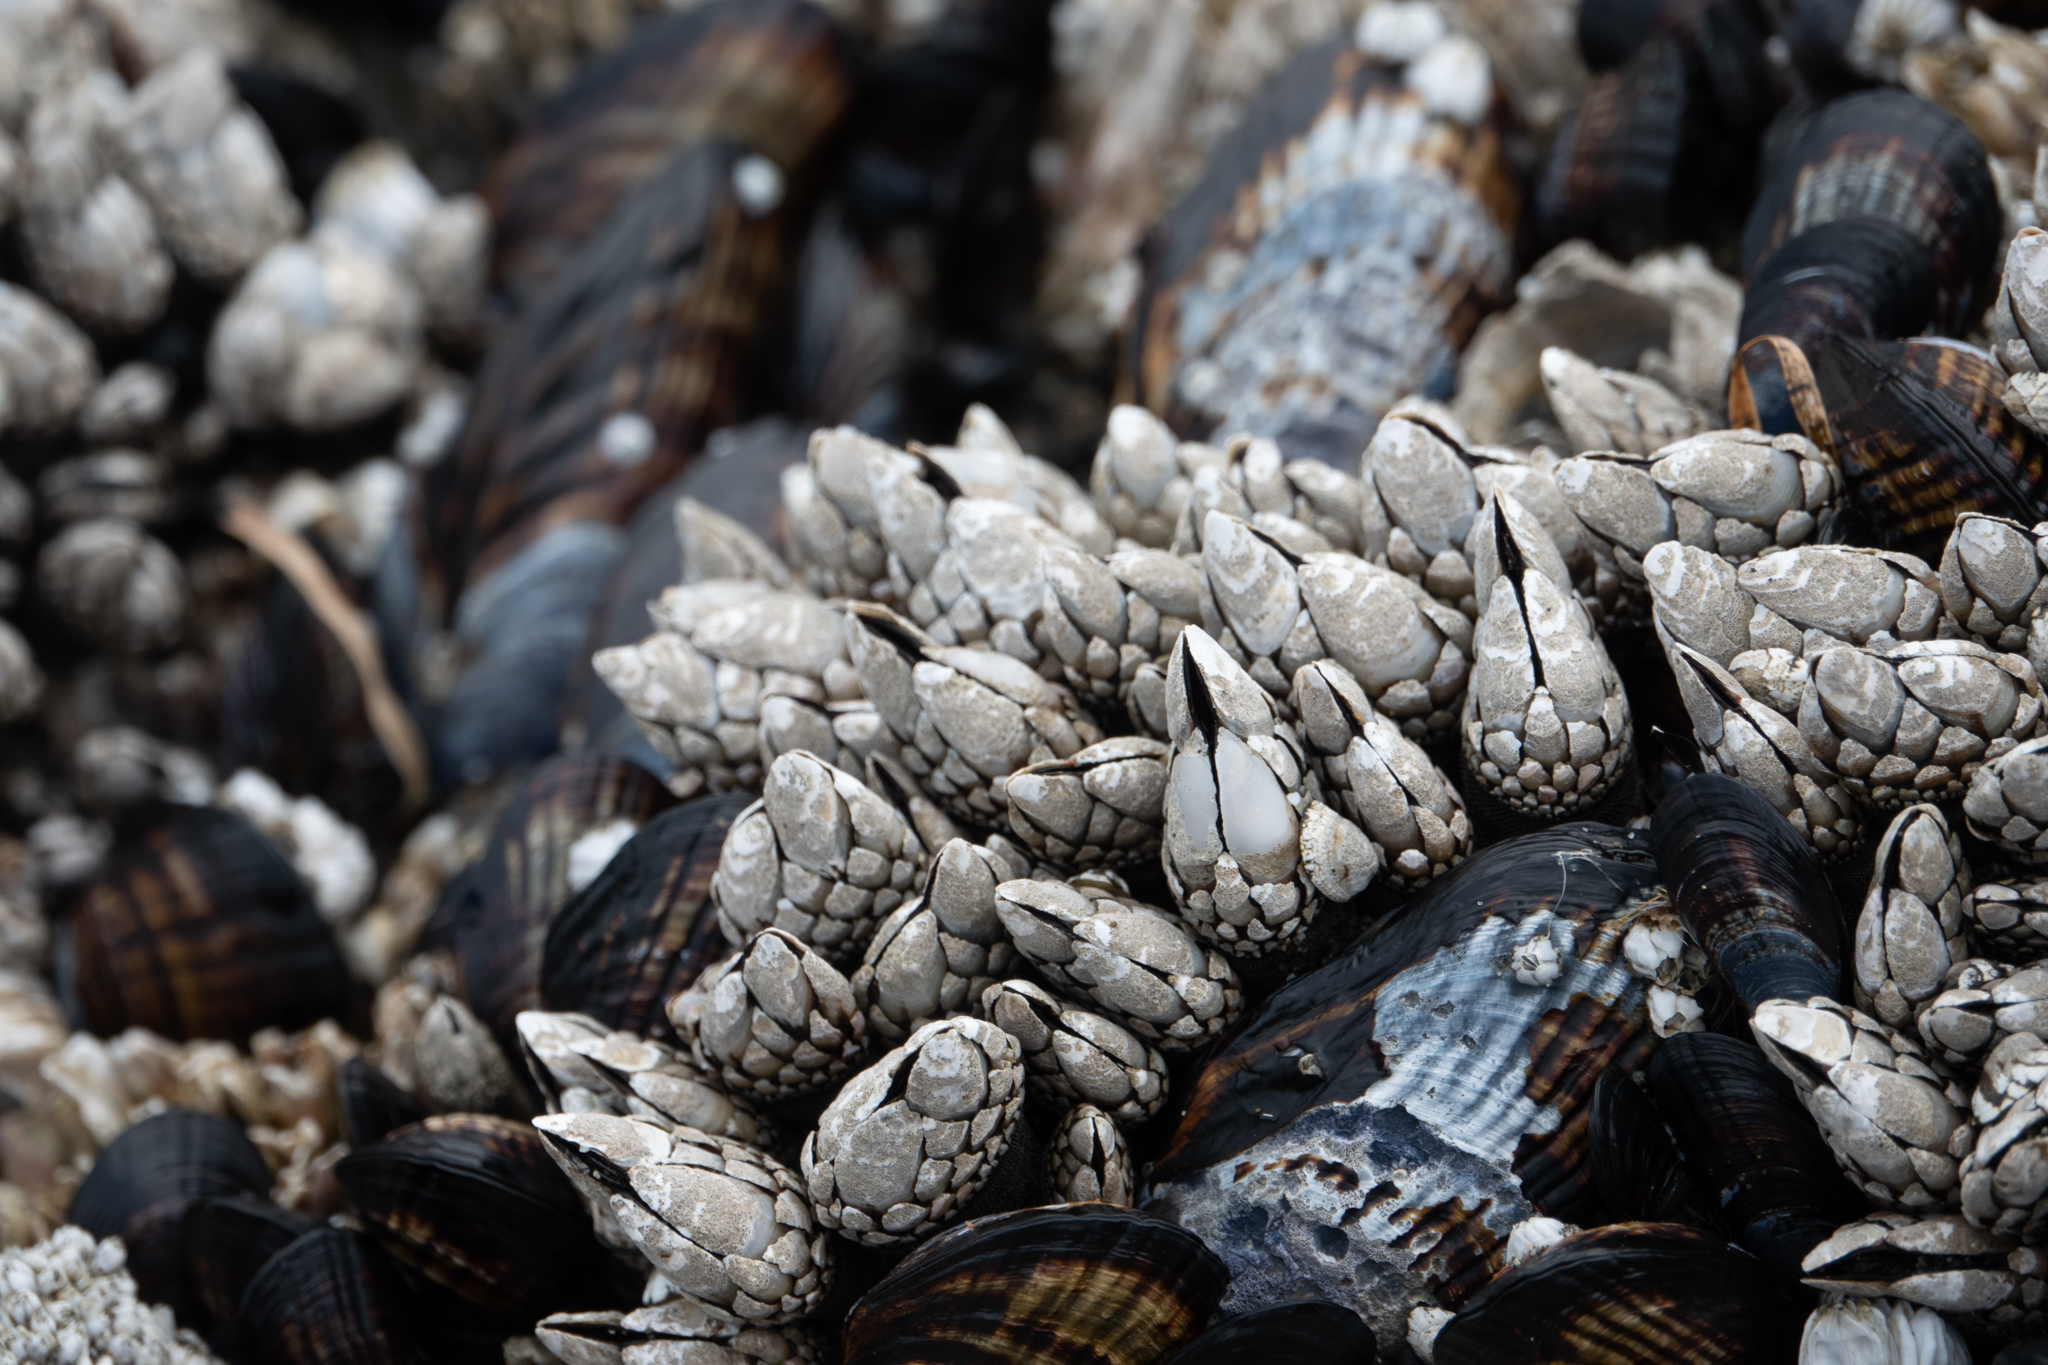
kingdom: Animalia
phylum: Arthropoda
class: Maxillopoda
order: Pedunculata
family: Pollicipedidae
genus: Pollicipes
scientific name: Pollicipes polymerus
